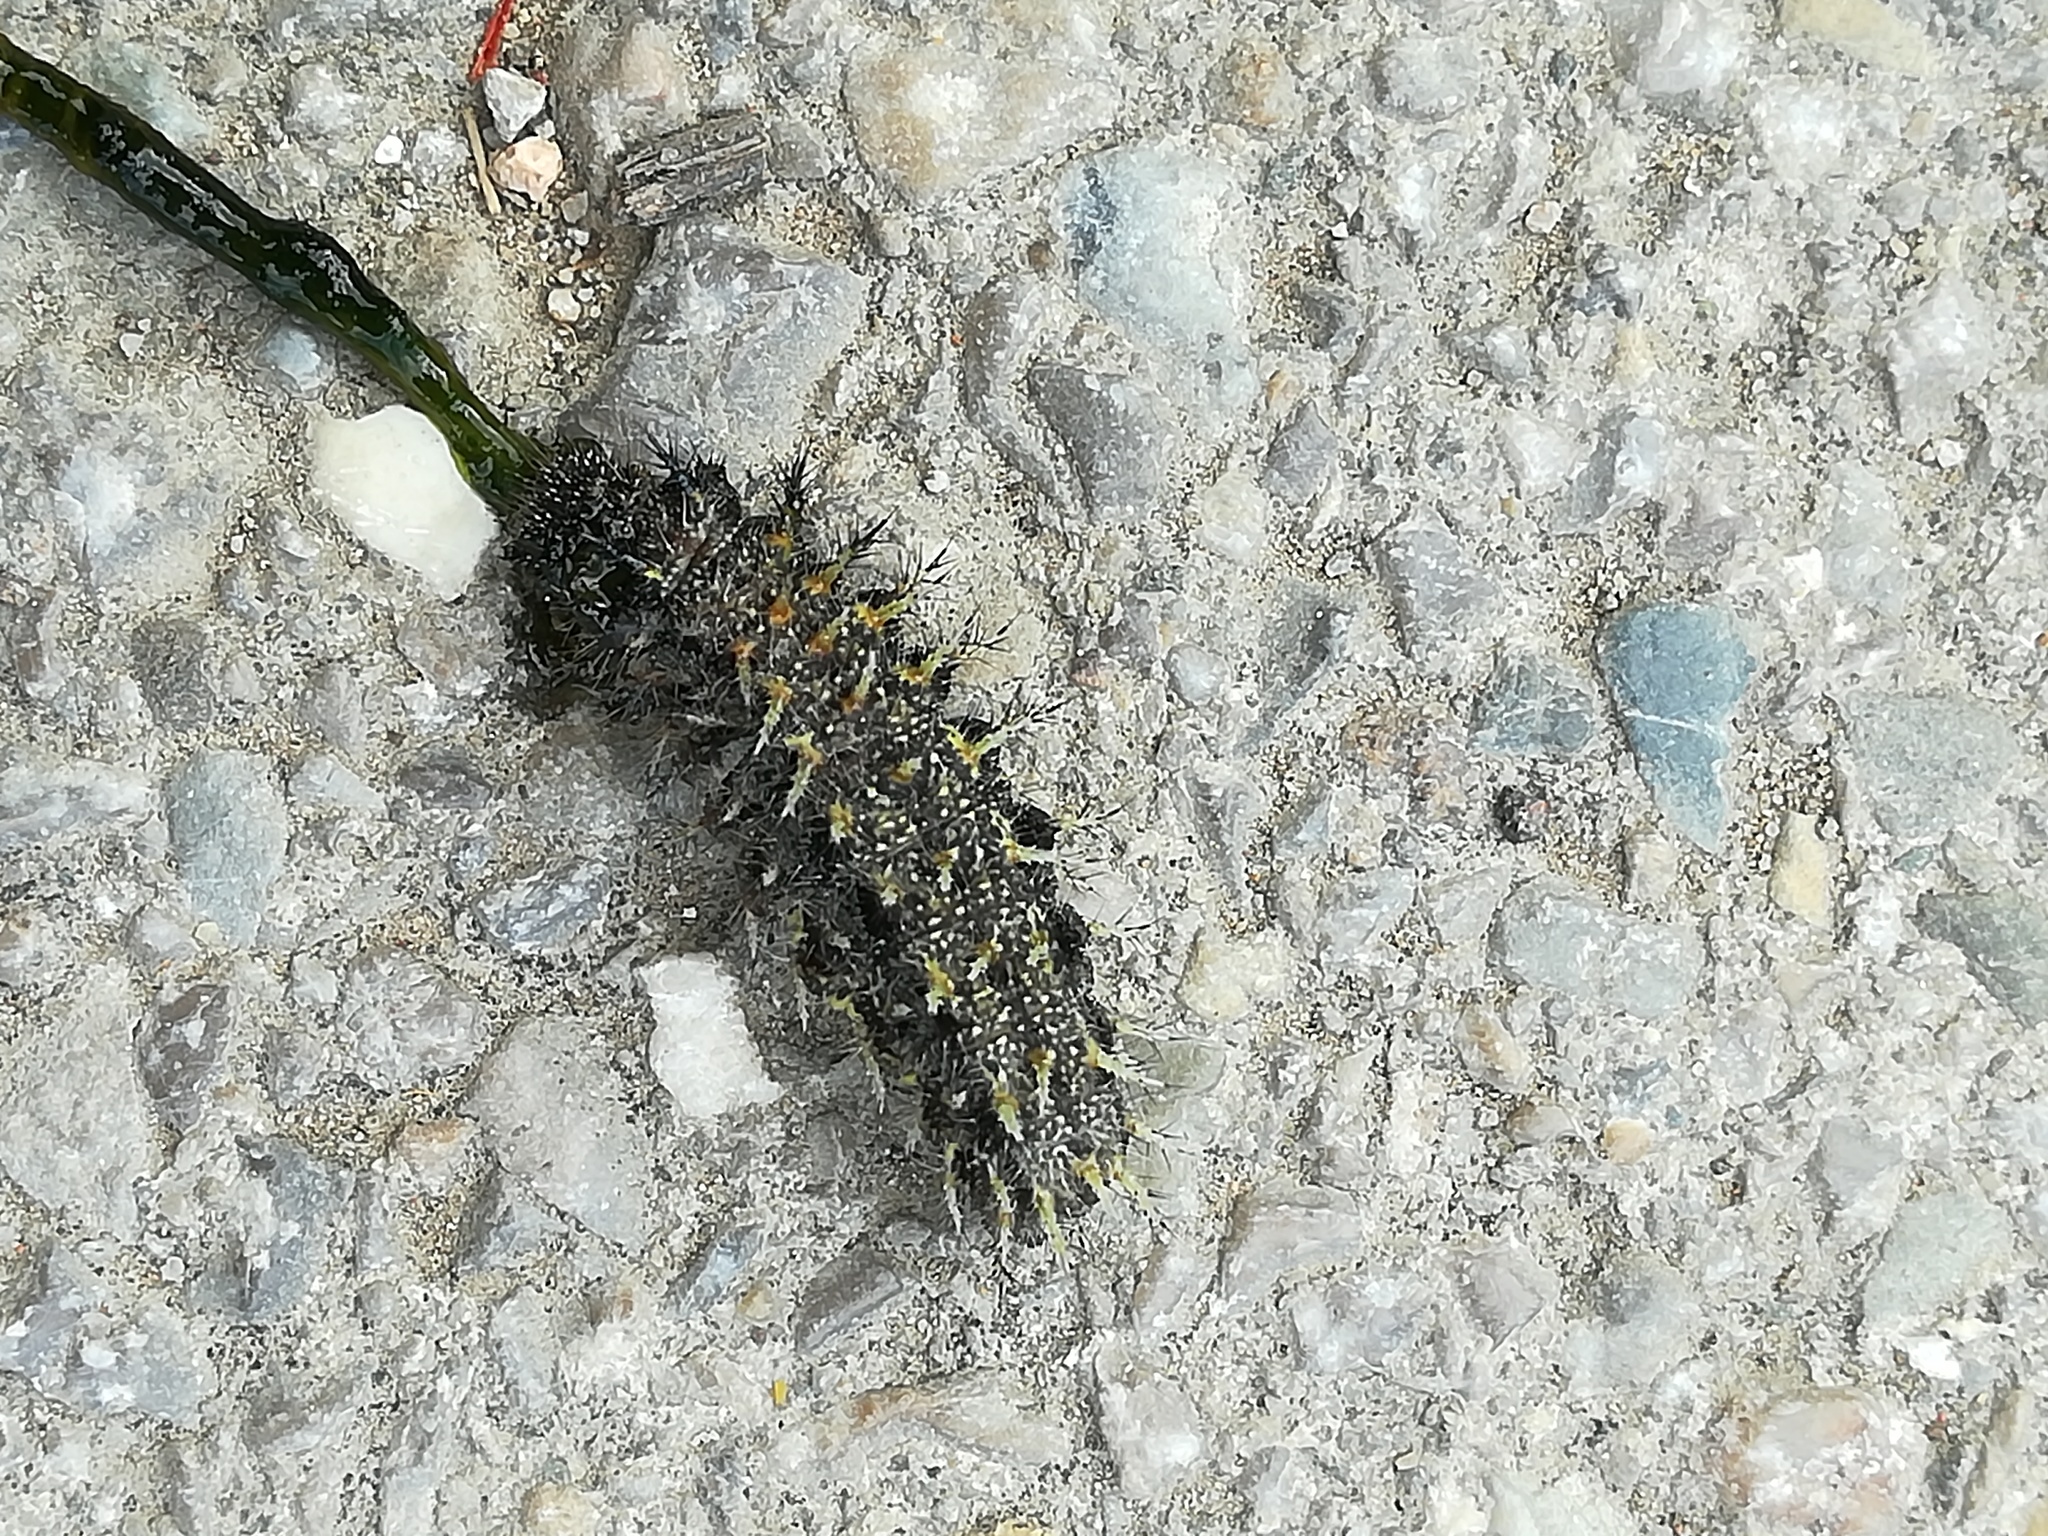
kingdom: Animalia
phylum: Arthropoda
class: Insecta
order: Lepidoptera
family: Nymphalidae
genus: Vanessa
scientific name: Vanessa atalanta
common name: Red admiral
